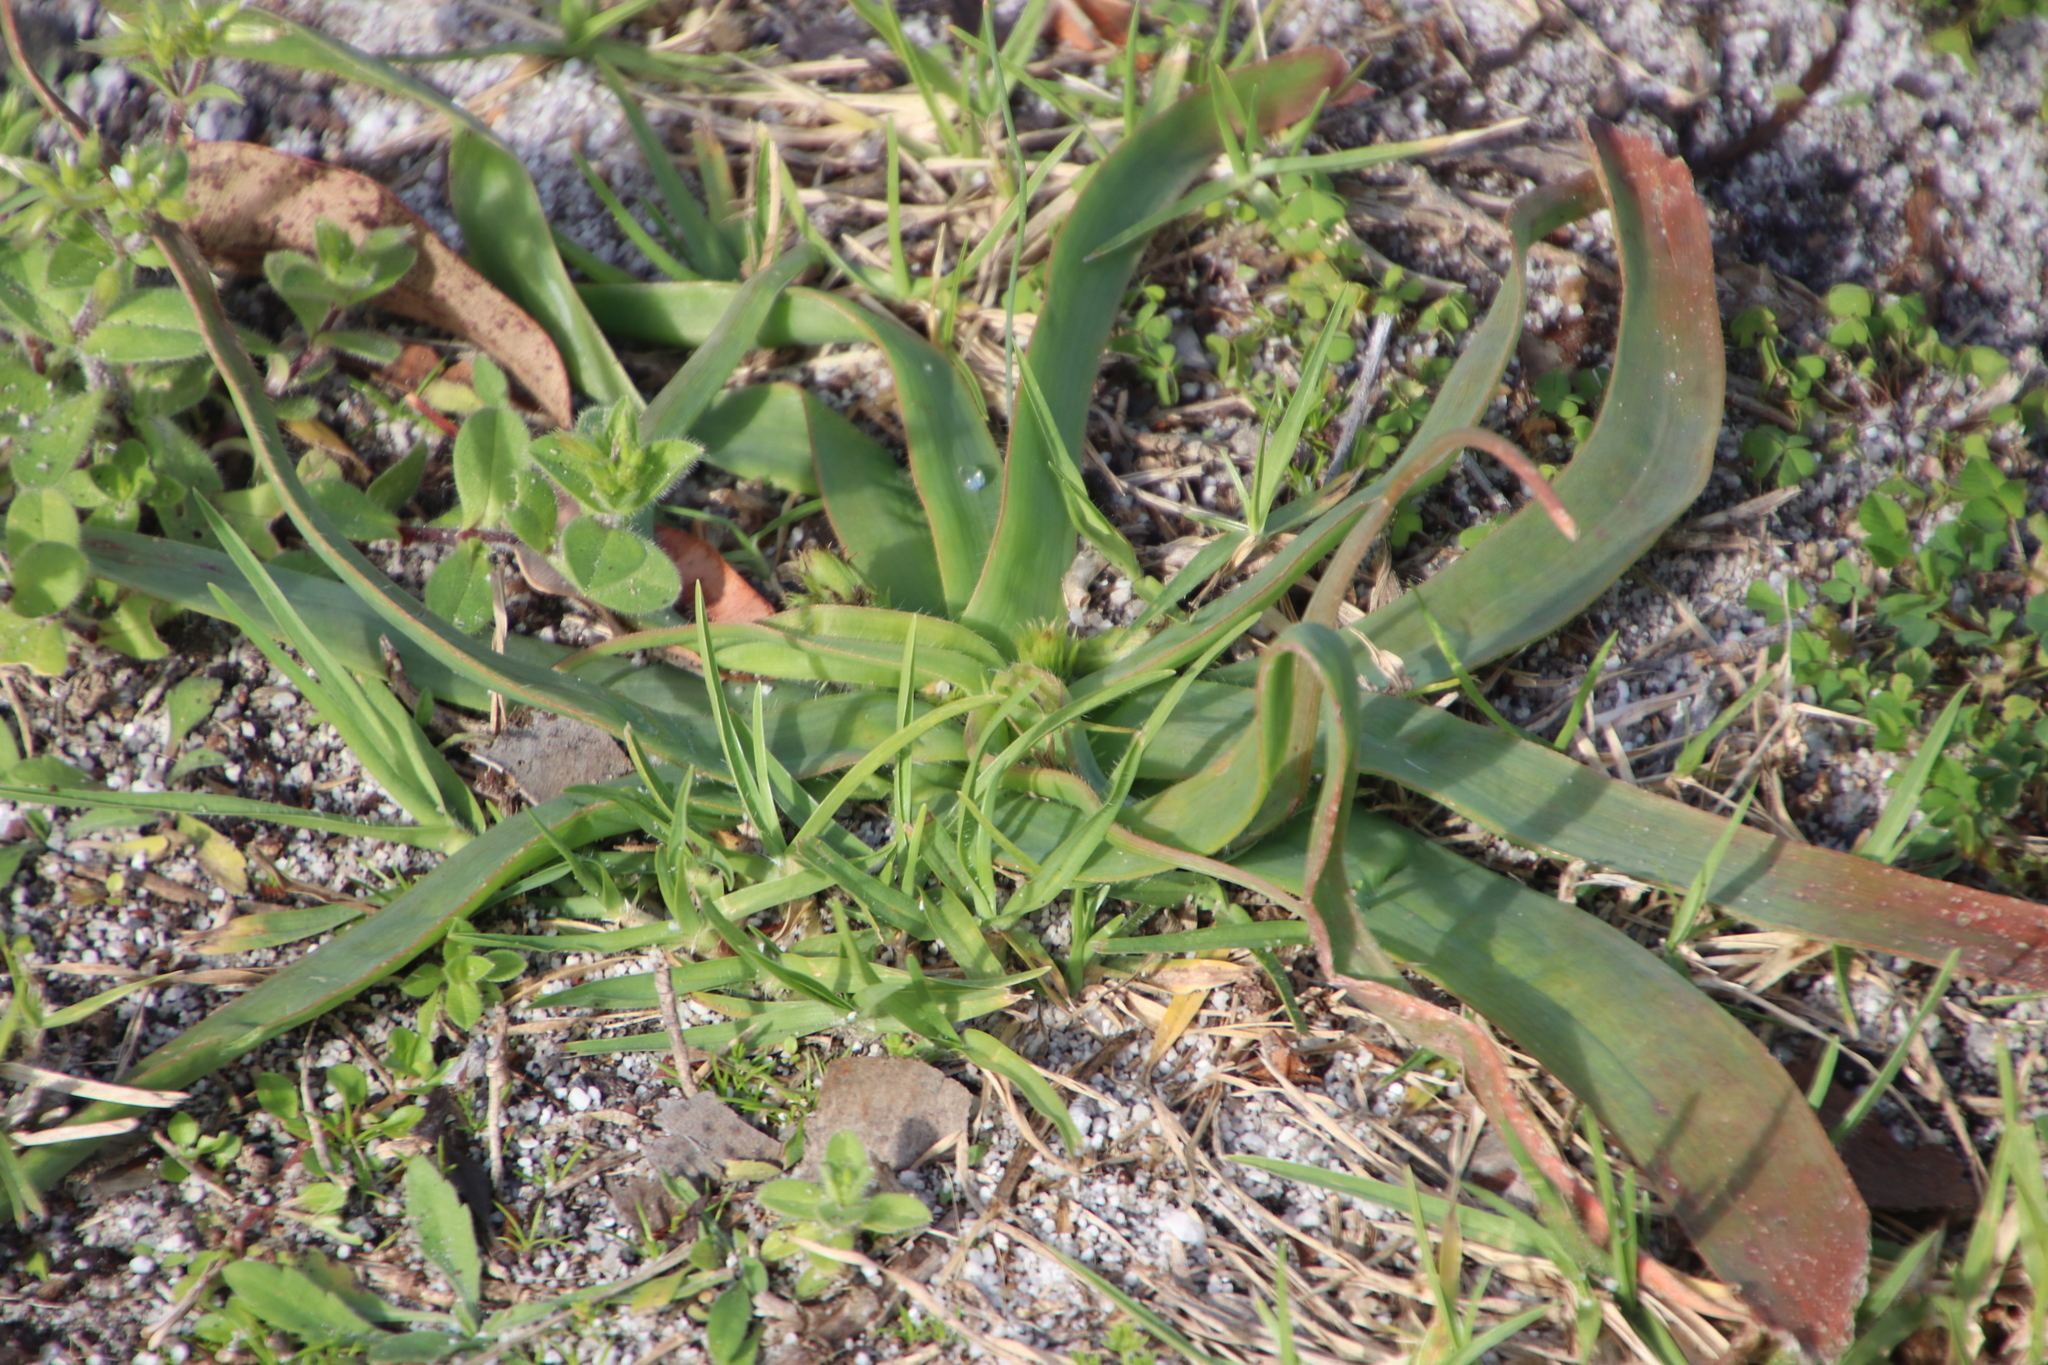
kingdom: Plantae
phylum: Tracheophyta
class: Liliopsida
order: Asparagales
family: Asphodelaceae
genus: Trachyandra
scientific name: Trachyandra ciliata
